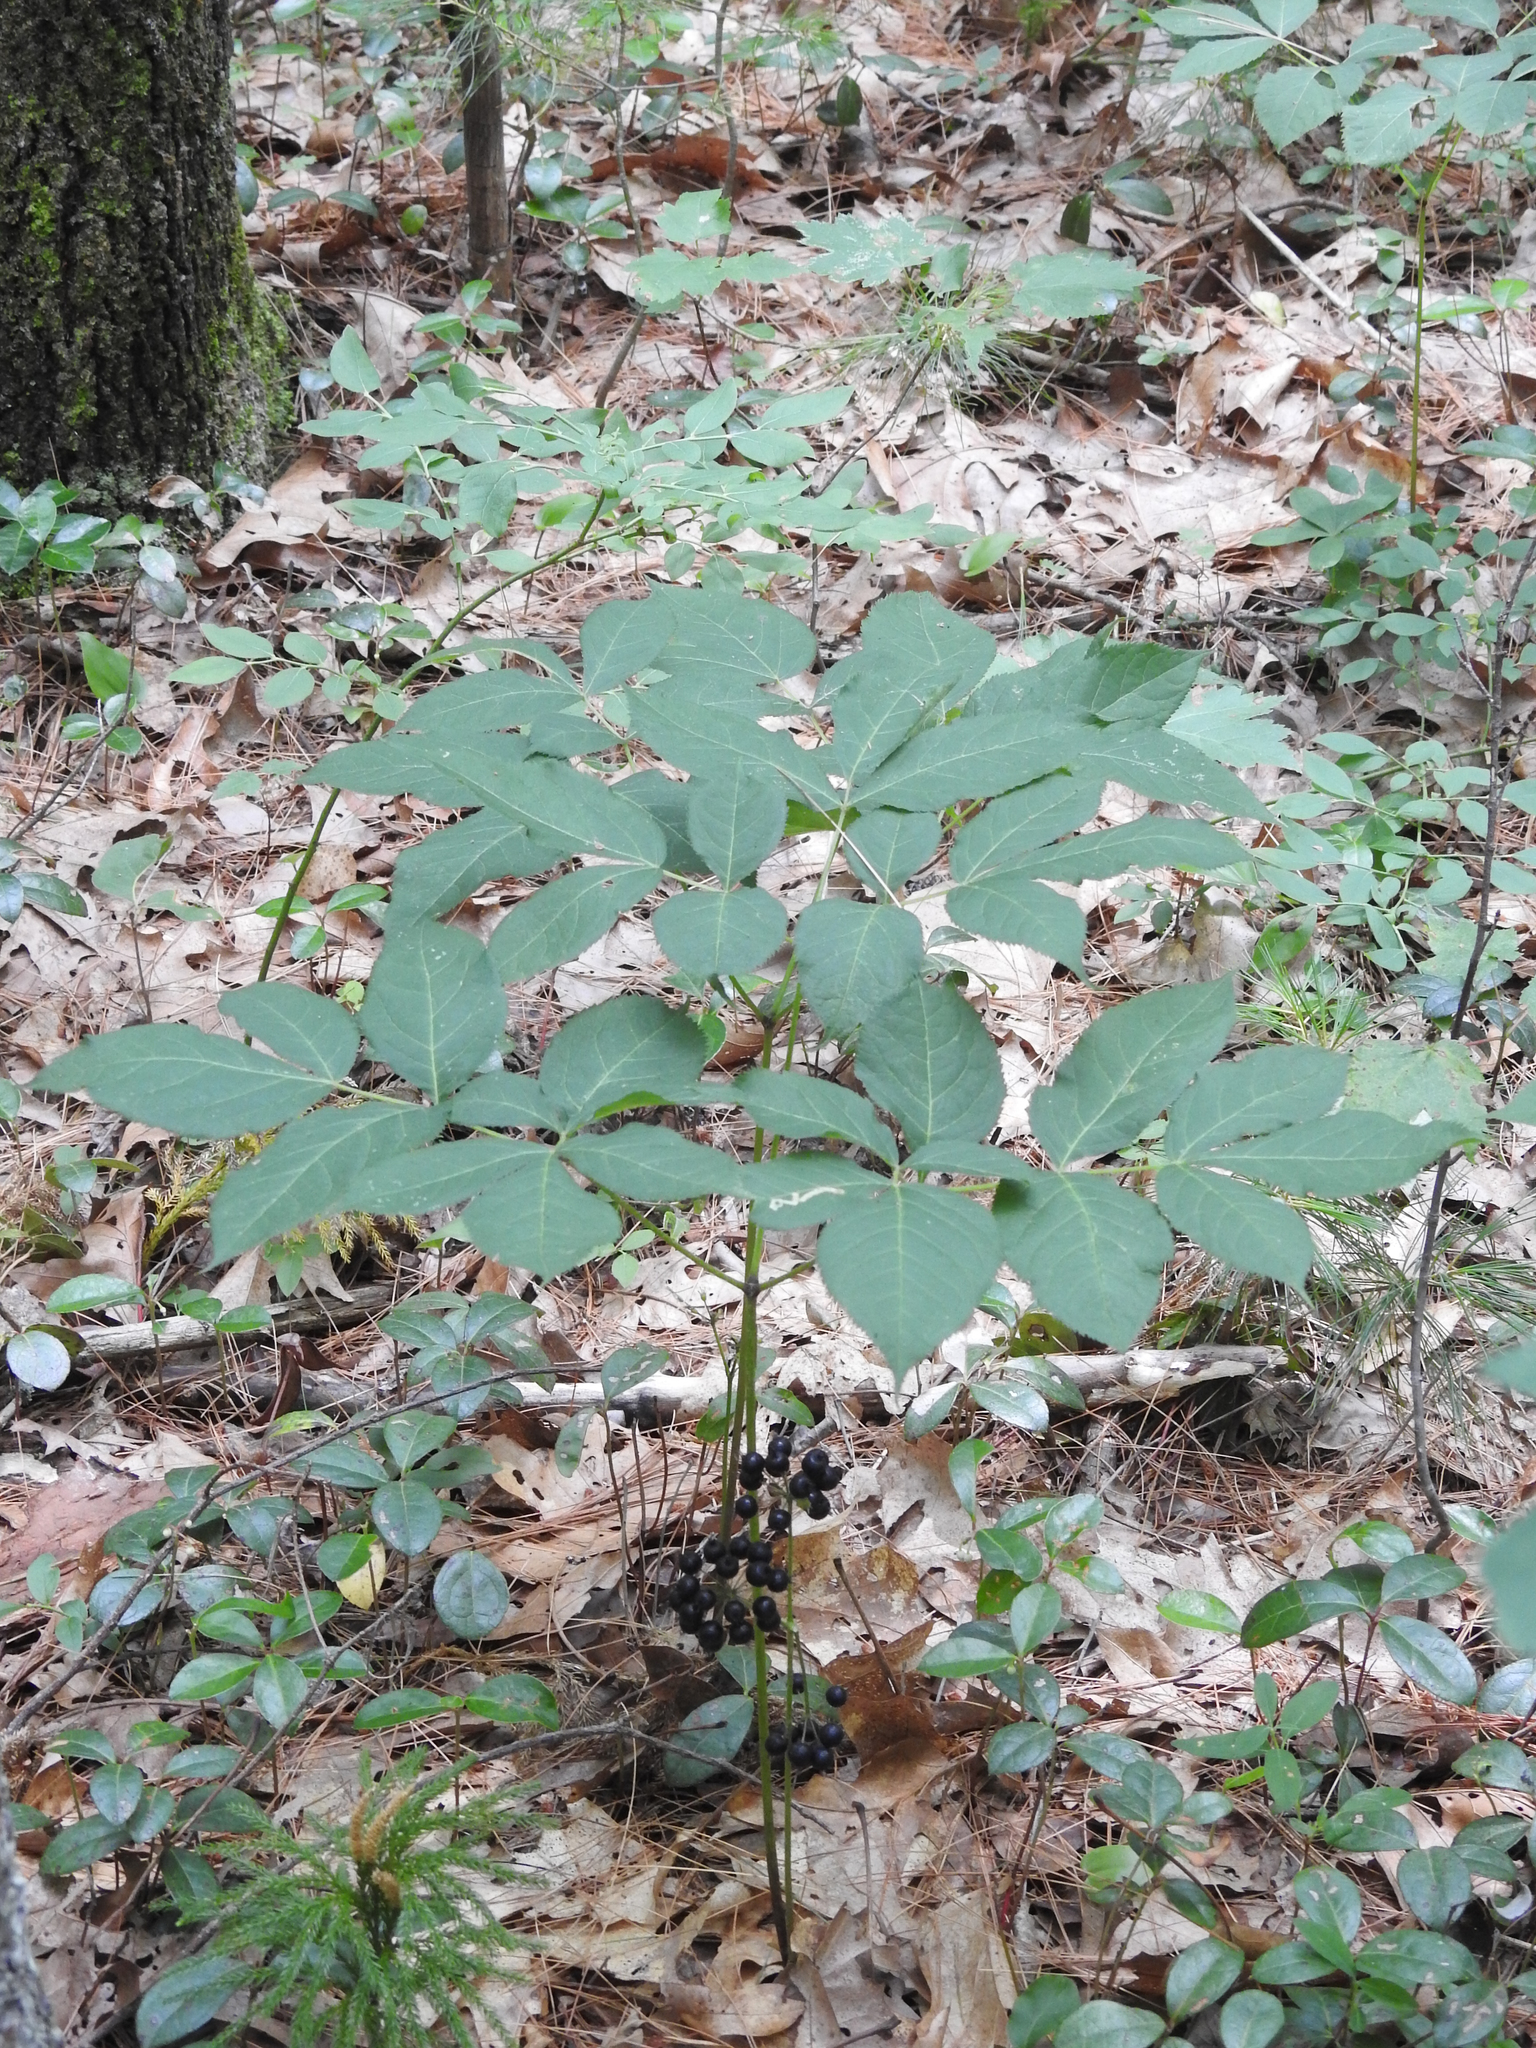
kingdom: Plantae
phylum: Tracheophyta
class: Magnoliopsida
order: Apiales
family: Araliaceae
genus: Aralia
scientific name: Aralia nudicaulis
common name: Wild sarsaparilla
